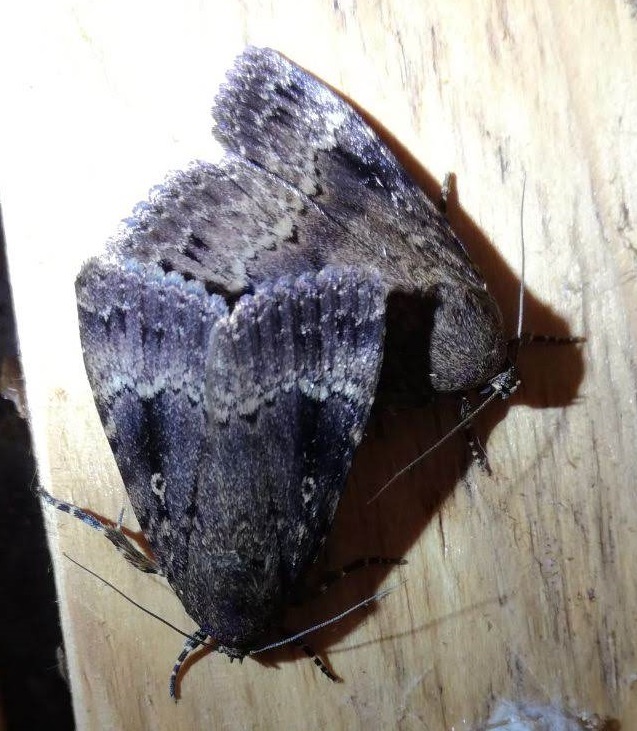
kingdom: Animalia
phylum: Arthropoda
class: Insecta
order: Lepidoptera
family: Noctuidae
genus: Amphipyra
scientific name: Amphipyra pyramidea
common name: Copper underwing
